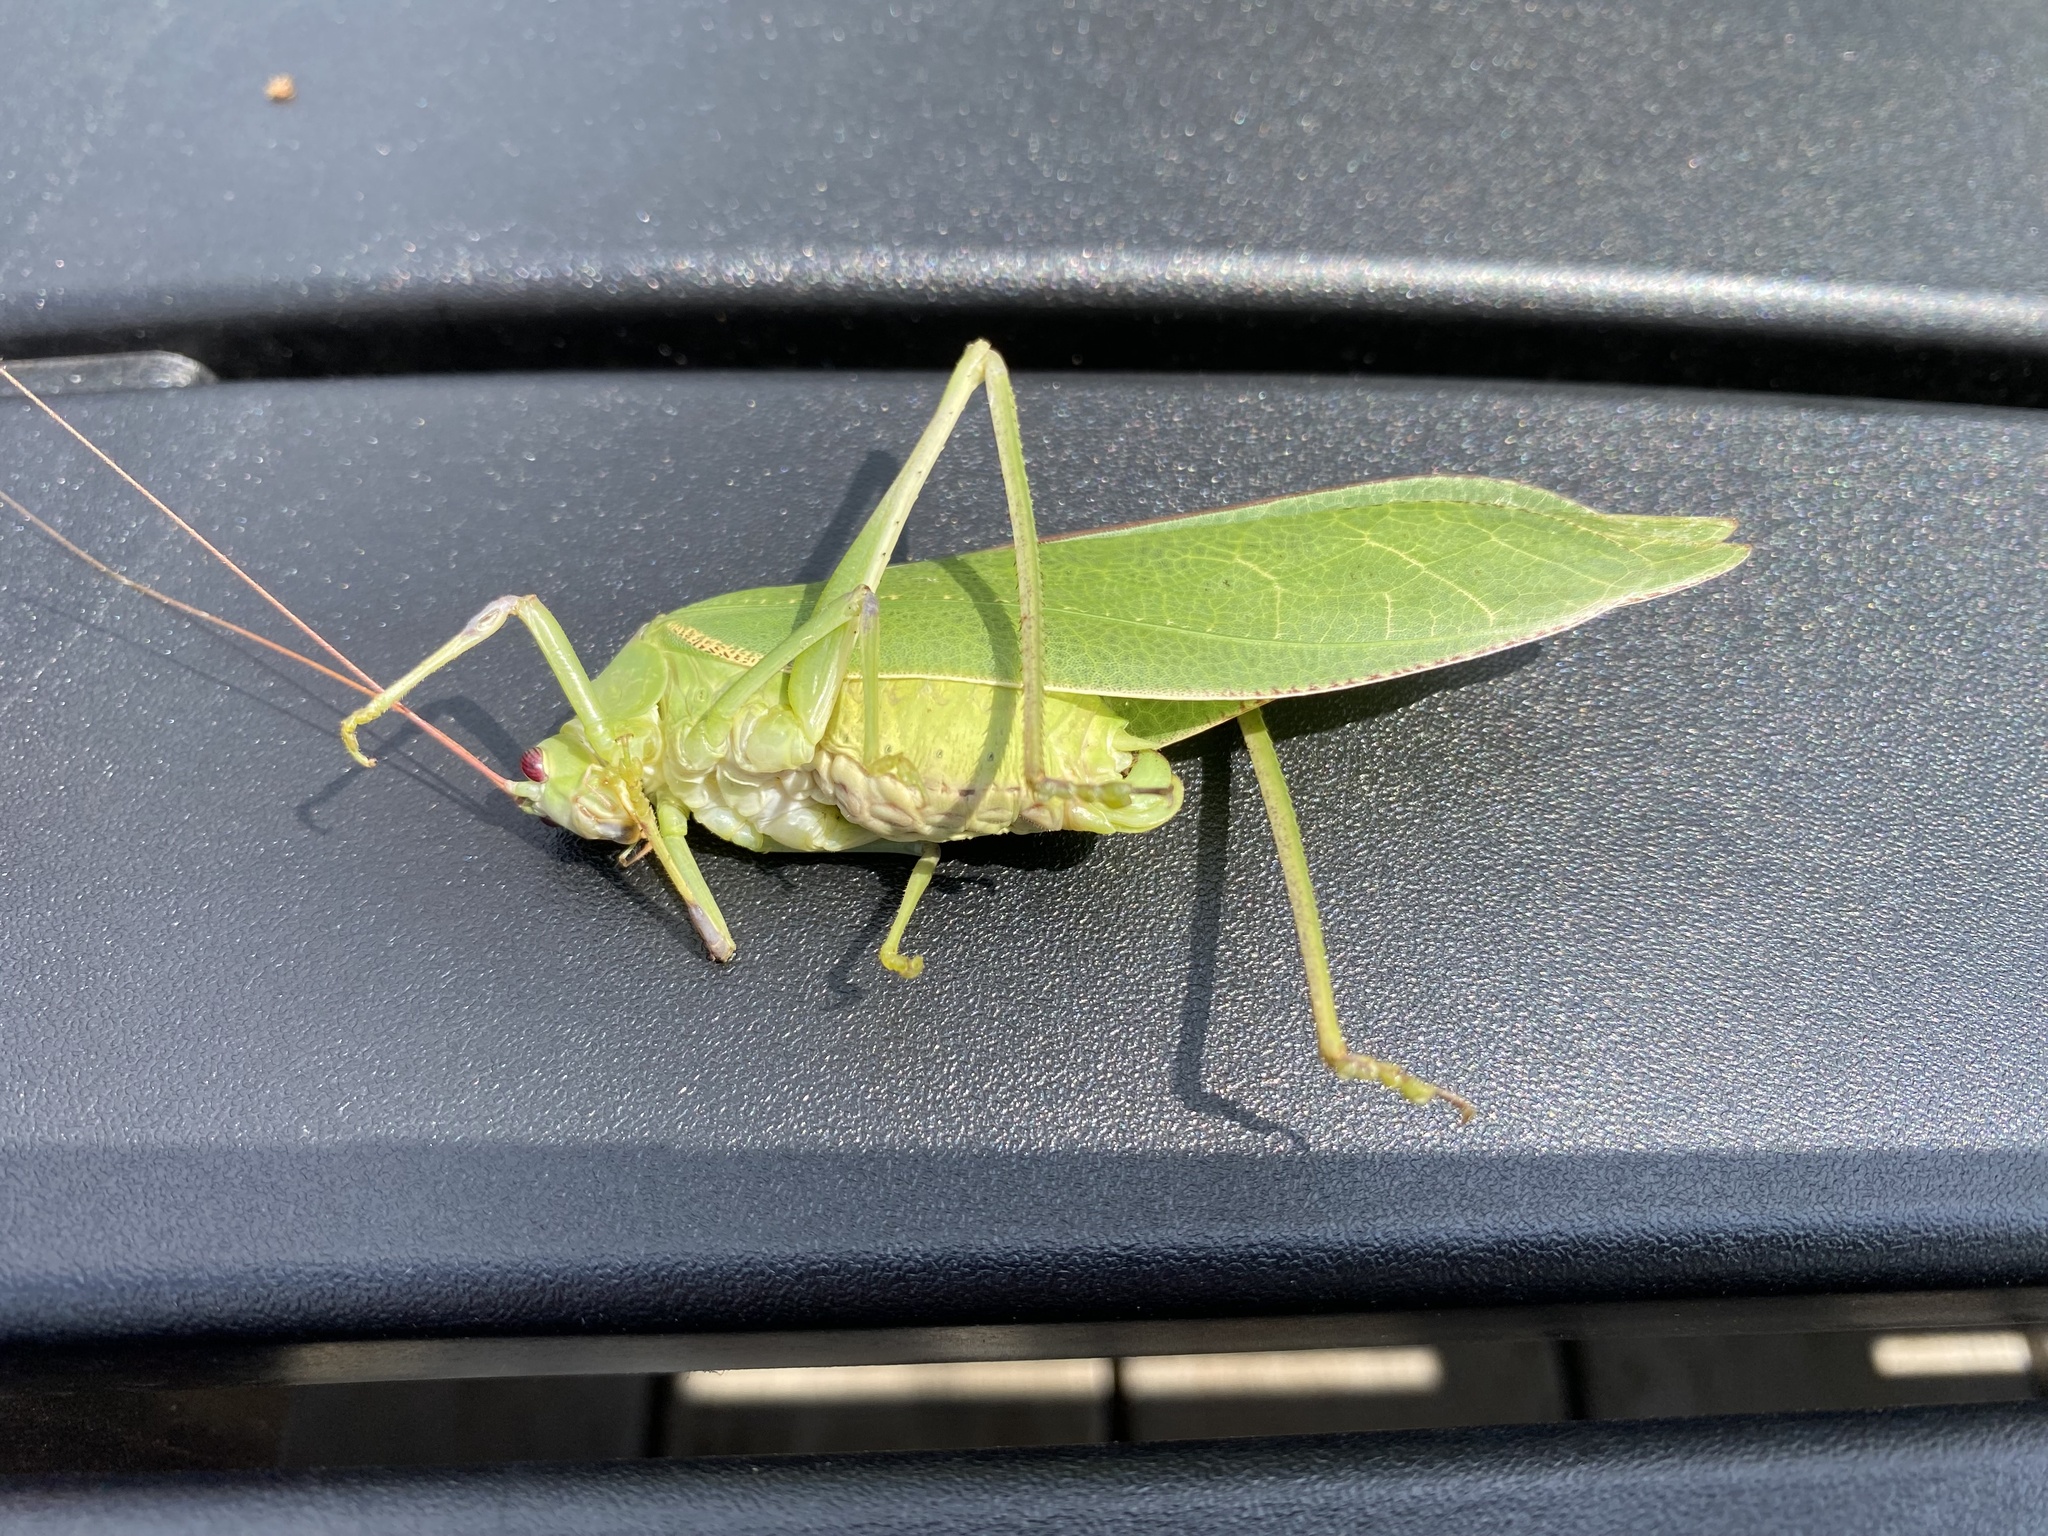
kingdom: Animalia
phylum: Arthropoda
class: Insecta
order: Orthoptera
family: Tettigoniidae
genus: Arantia
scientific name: Arantia tanzanica
